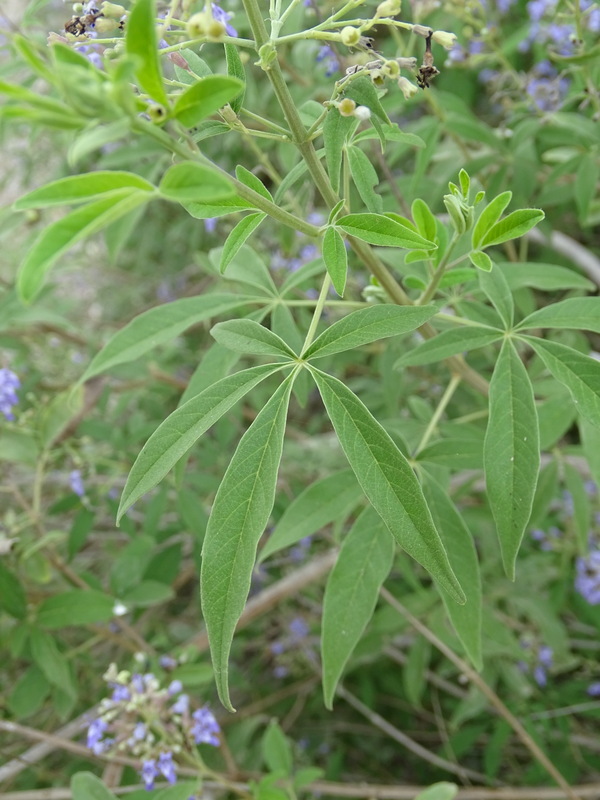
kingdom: Plantae
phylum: Tracheophyta
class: Magnoliopsida
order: Lamiales
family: Lamiaceae
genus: Vitex
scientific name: Vitex agnus-castus
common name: Chasteberry
